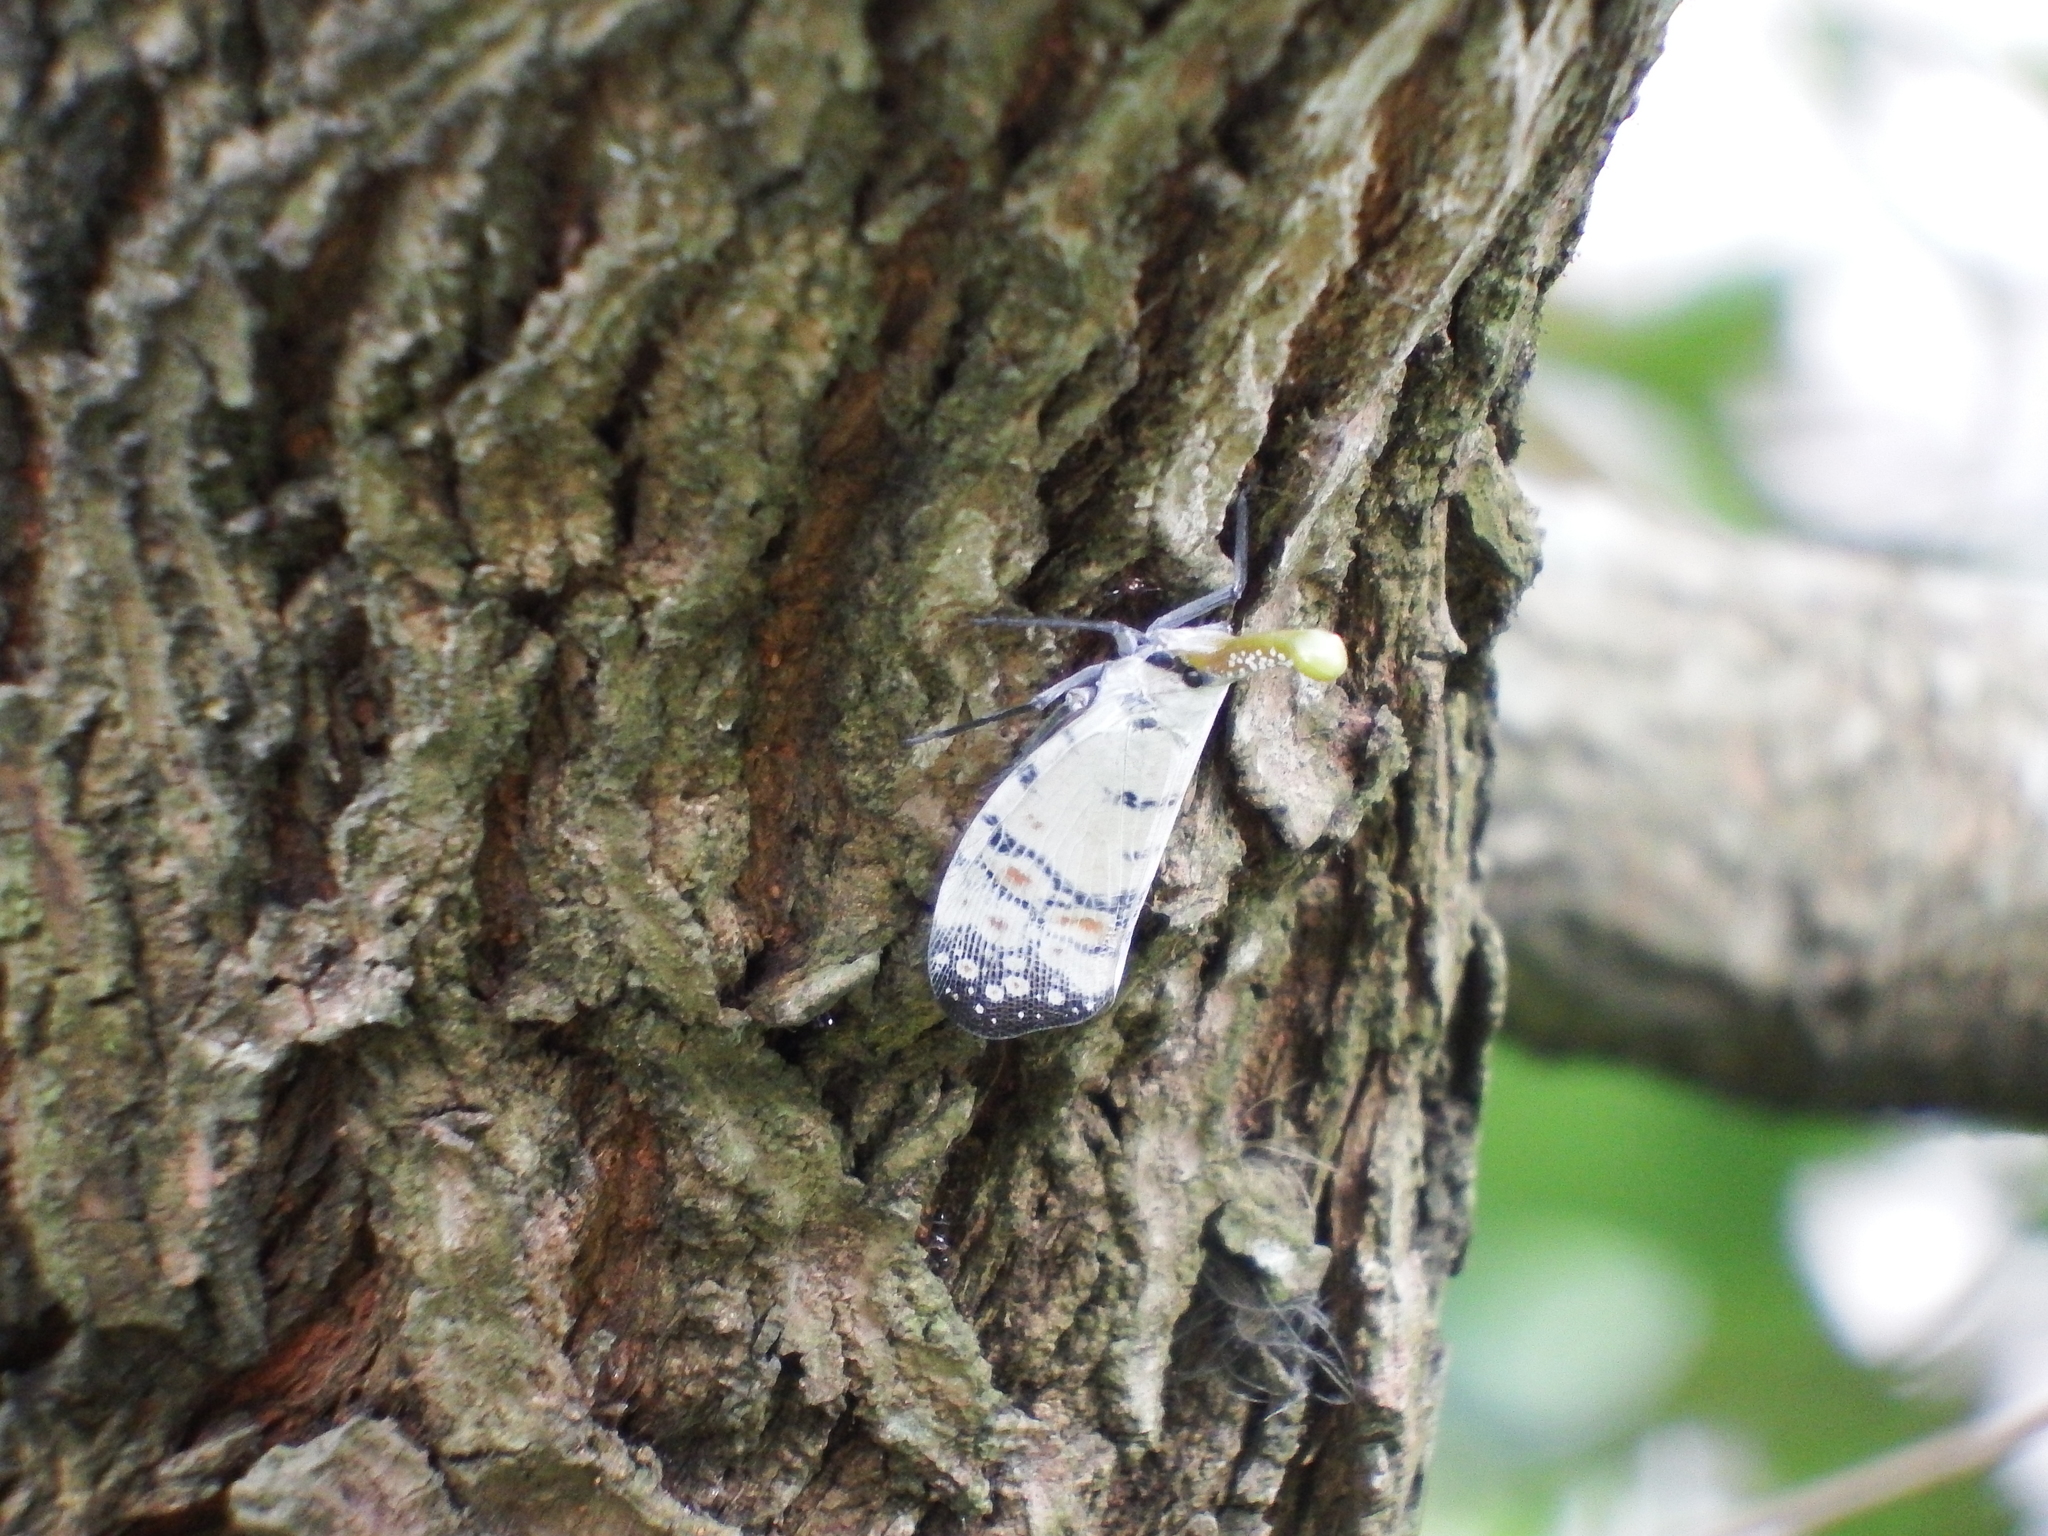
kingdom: Animalia
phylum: Arthropoda
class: Insecta
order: Hemiptera
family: Fulgoridae
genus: Pyrops
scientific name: Pyrops watanabei
